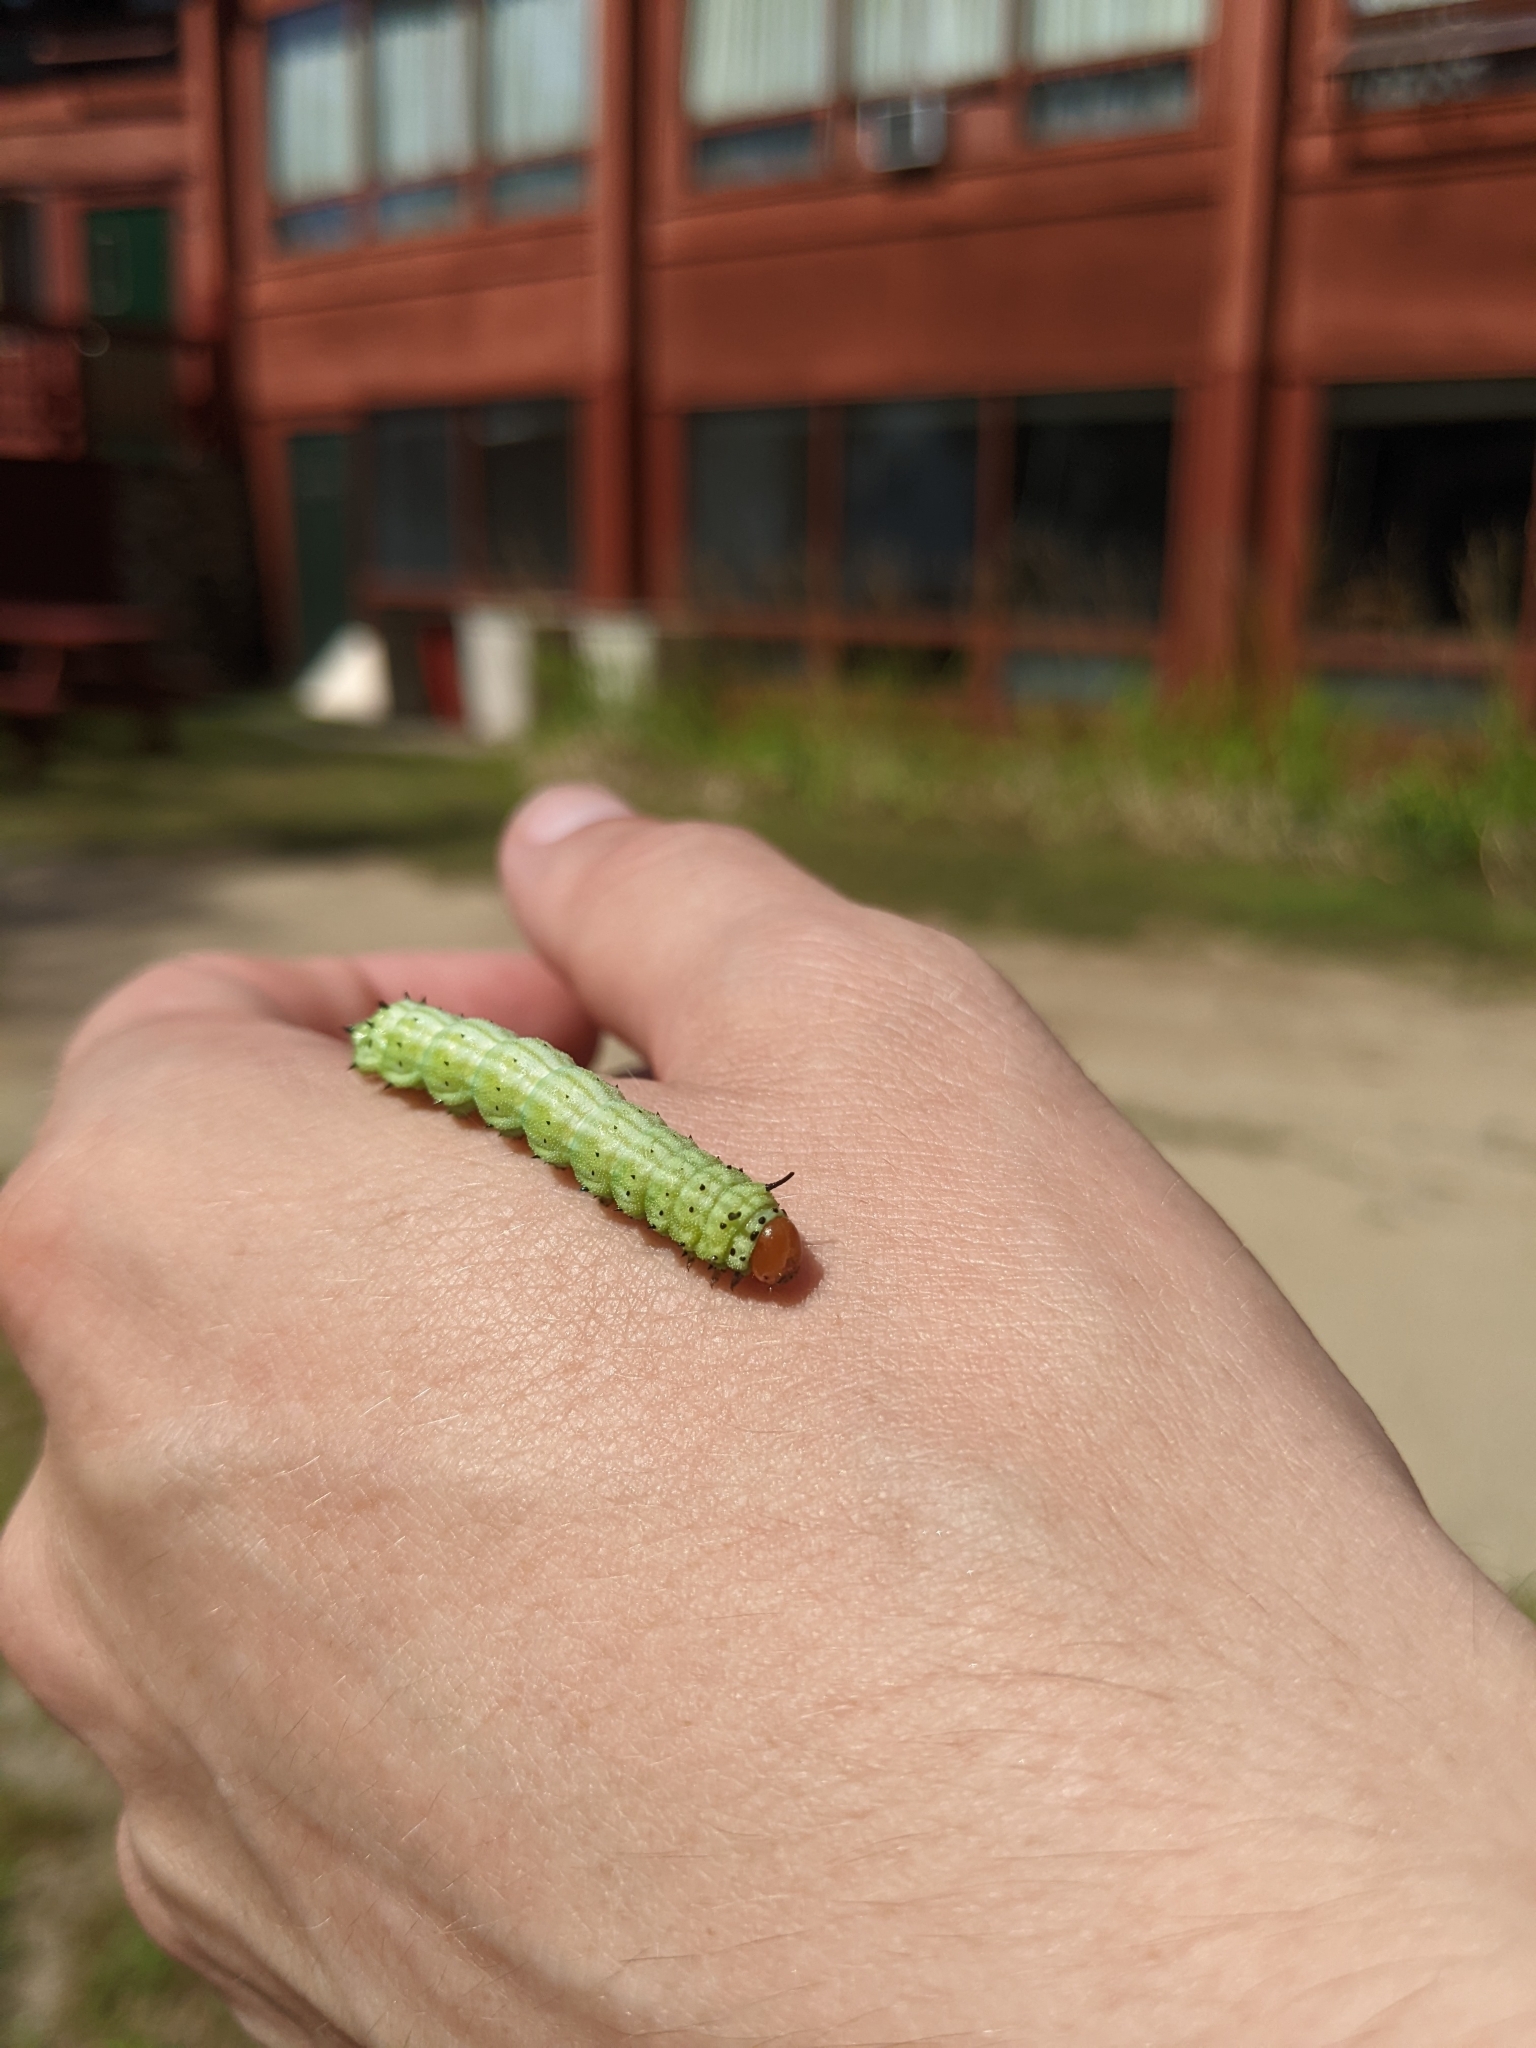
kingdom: Animalia
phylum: Arthropoda
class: Insecta
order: Lepidoptera
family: Saturniidae
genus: Dryocampa
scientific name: Dryocampa rubicunda
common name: Rosy maple moth
